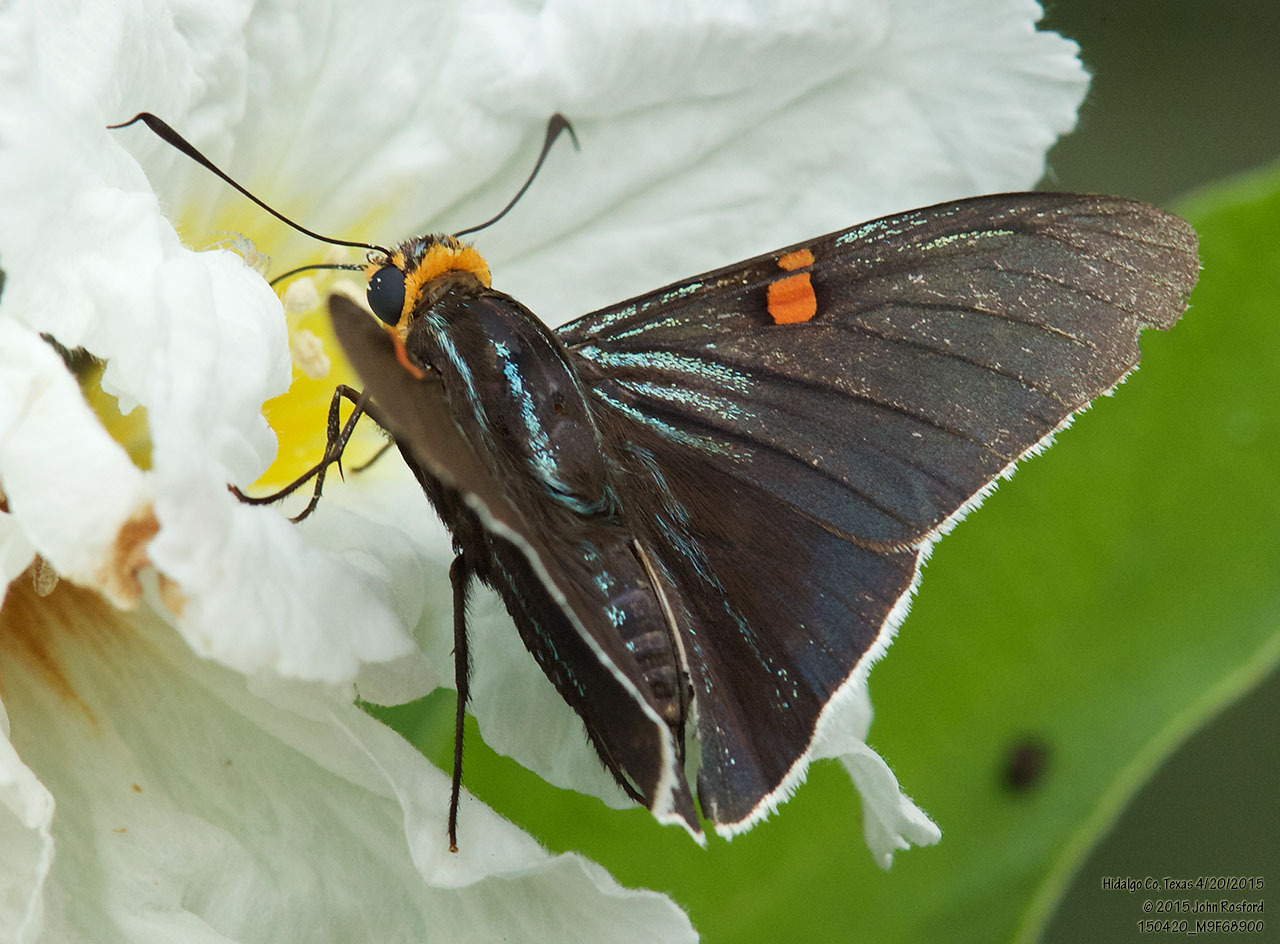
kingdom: Animalia
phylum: Arthropoda
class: Insecta
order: Lepidoptera
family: Hesperiidae
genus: Phocides
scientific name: Phocides lilea
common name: Guava skipper
